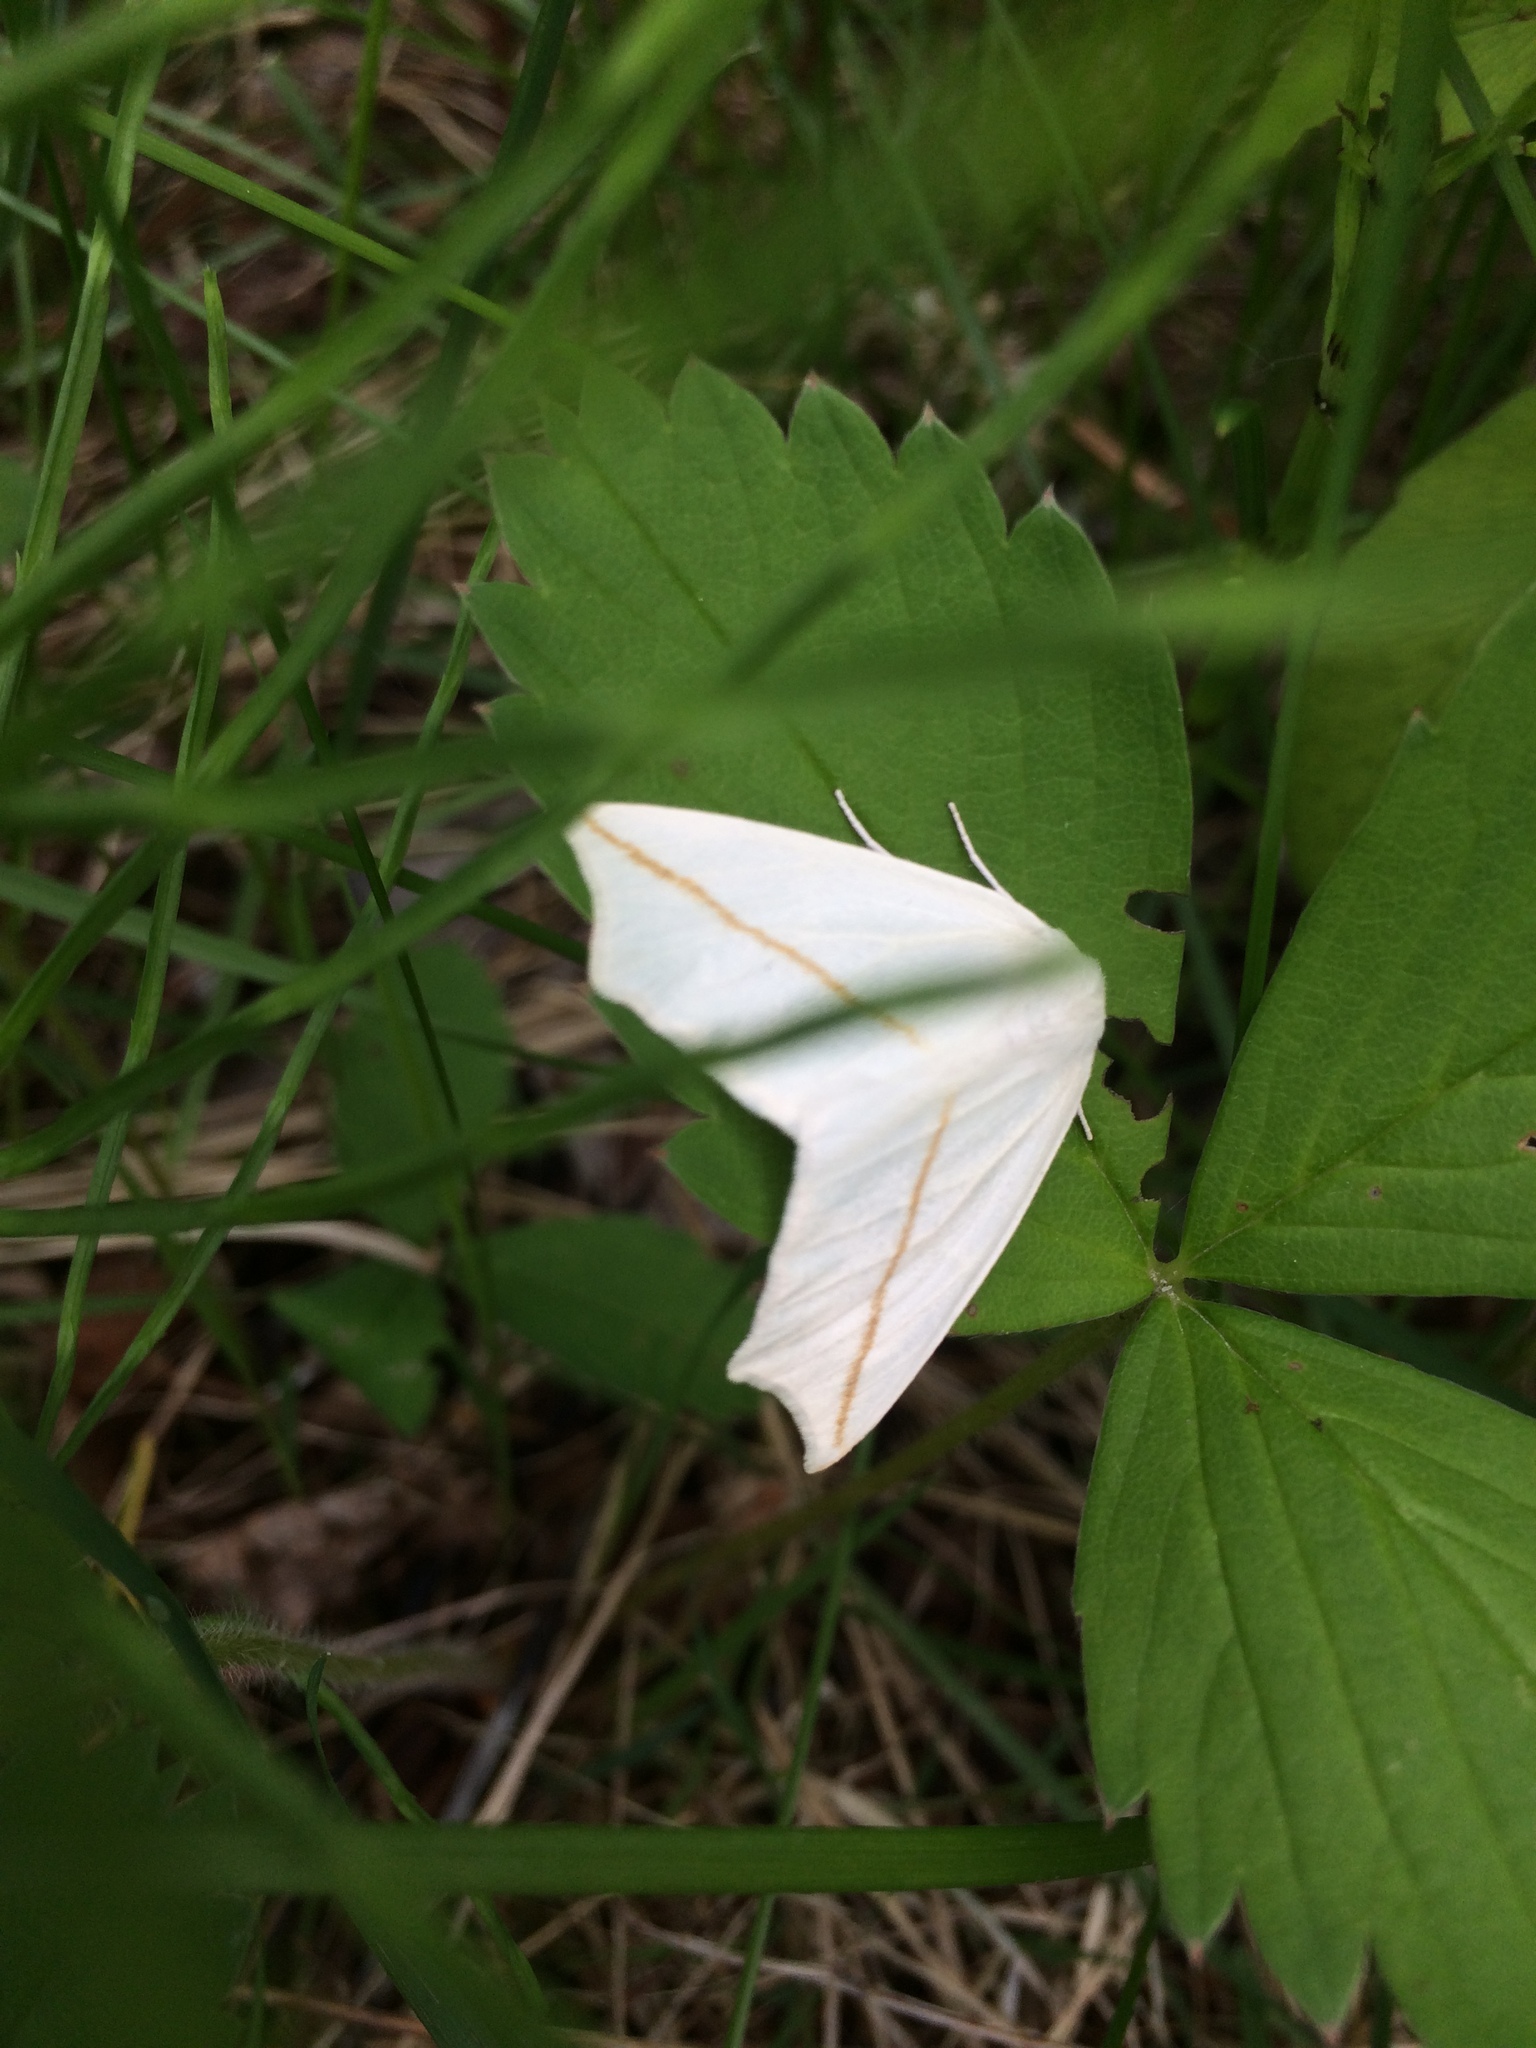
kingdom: Animalia
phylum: Arthropoda
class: Insecta
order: Lepidoptera
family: Geometridae
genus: Tetracis
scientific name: Tetracis cachexiata
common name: White slant-line
